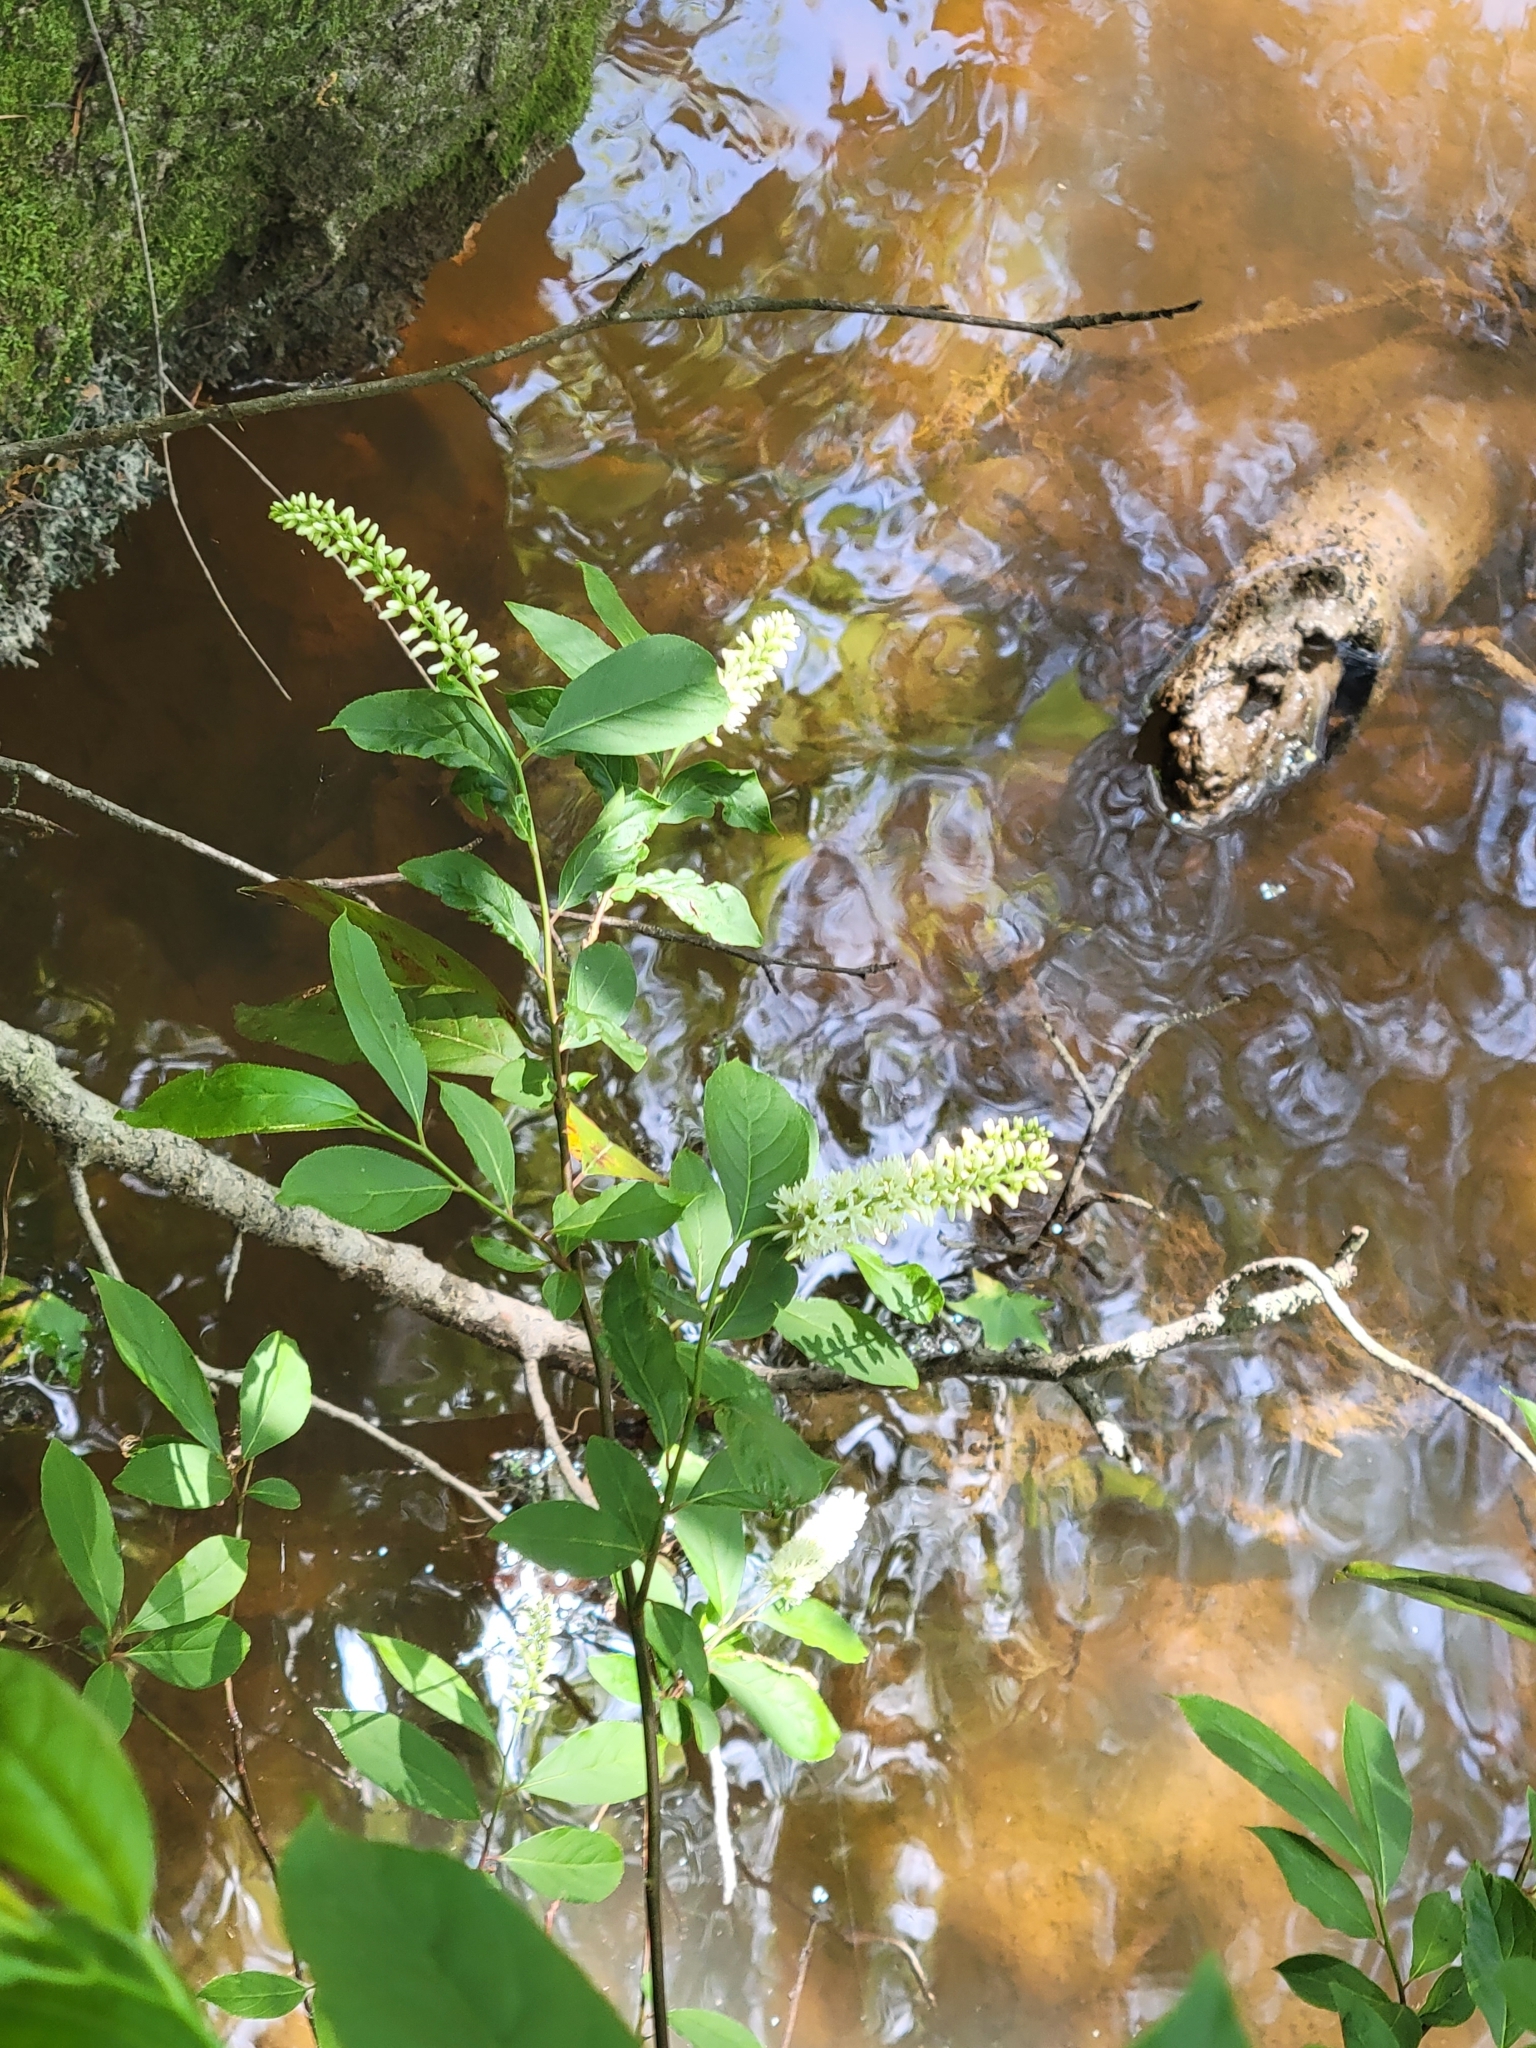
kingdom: Plantae
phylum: Tracheophyta
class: Magnoliopsida
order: Saxifragales
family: Iteaceae
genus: Itea
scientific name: Itea virginica
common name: Sweetspire
